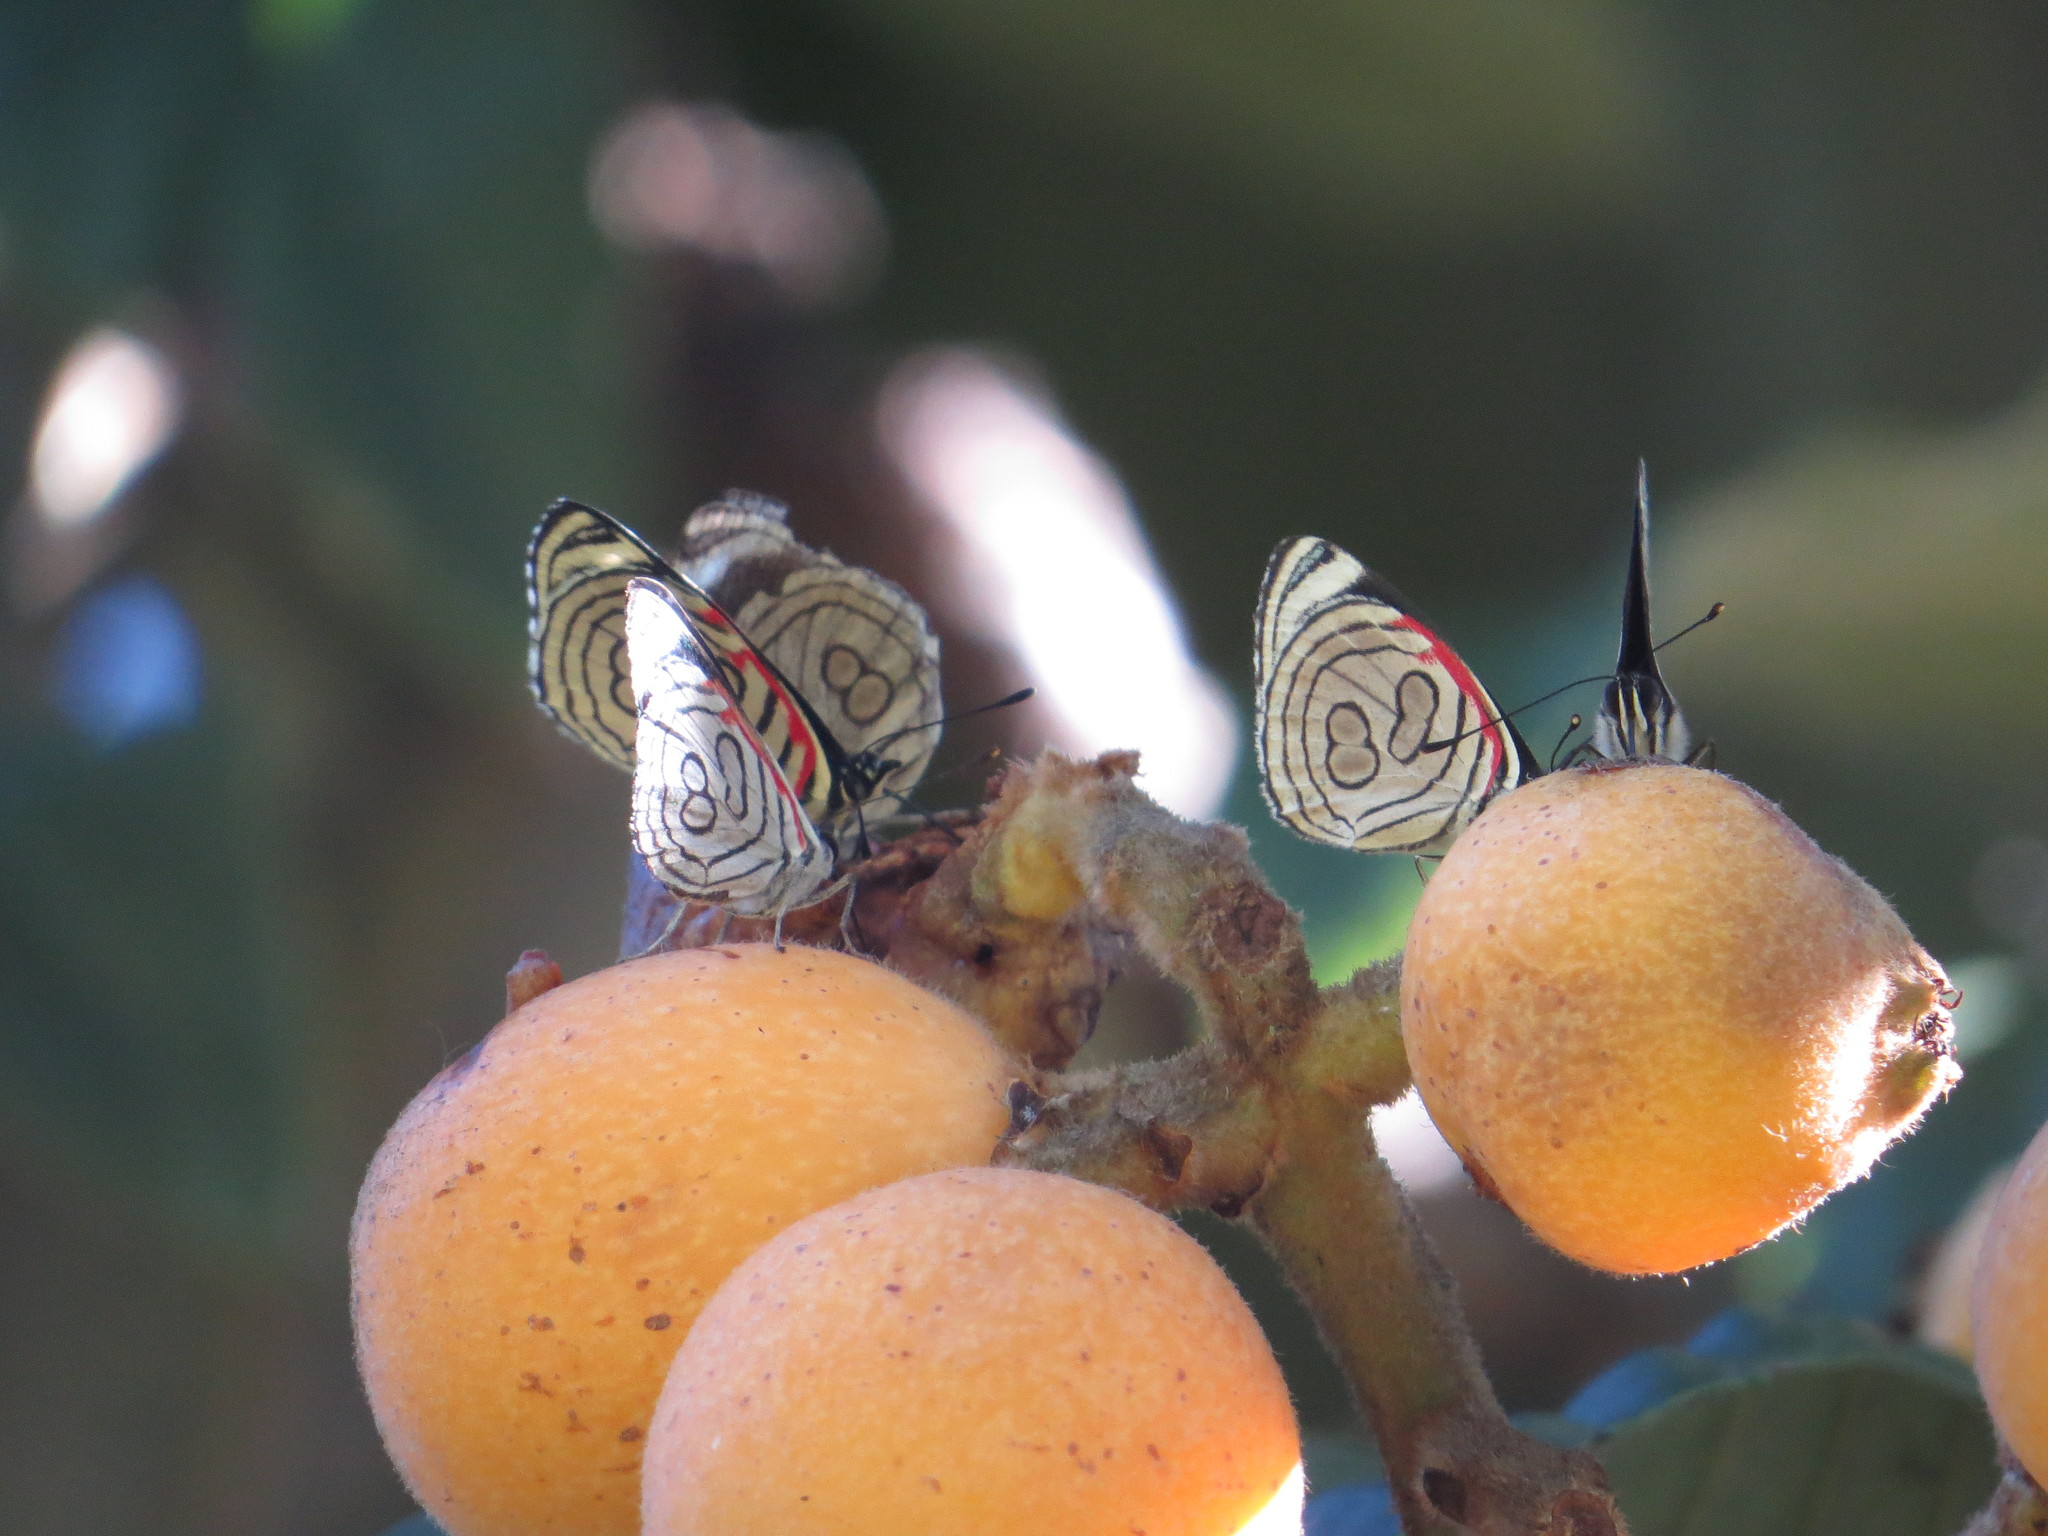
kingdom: Animalia
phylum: Arthropoda
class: Insecta
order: Lepidoptera
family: Nymphalidae
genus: Diaethria
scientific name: Diaethria candrena
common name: Number eighty
